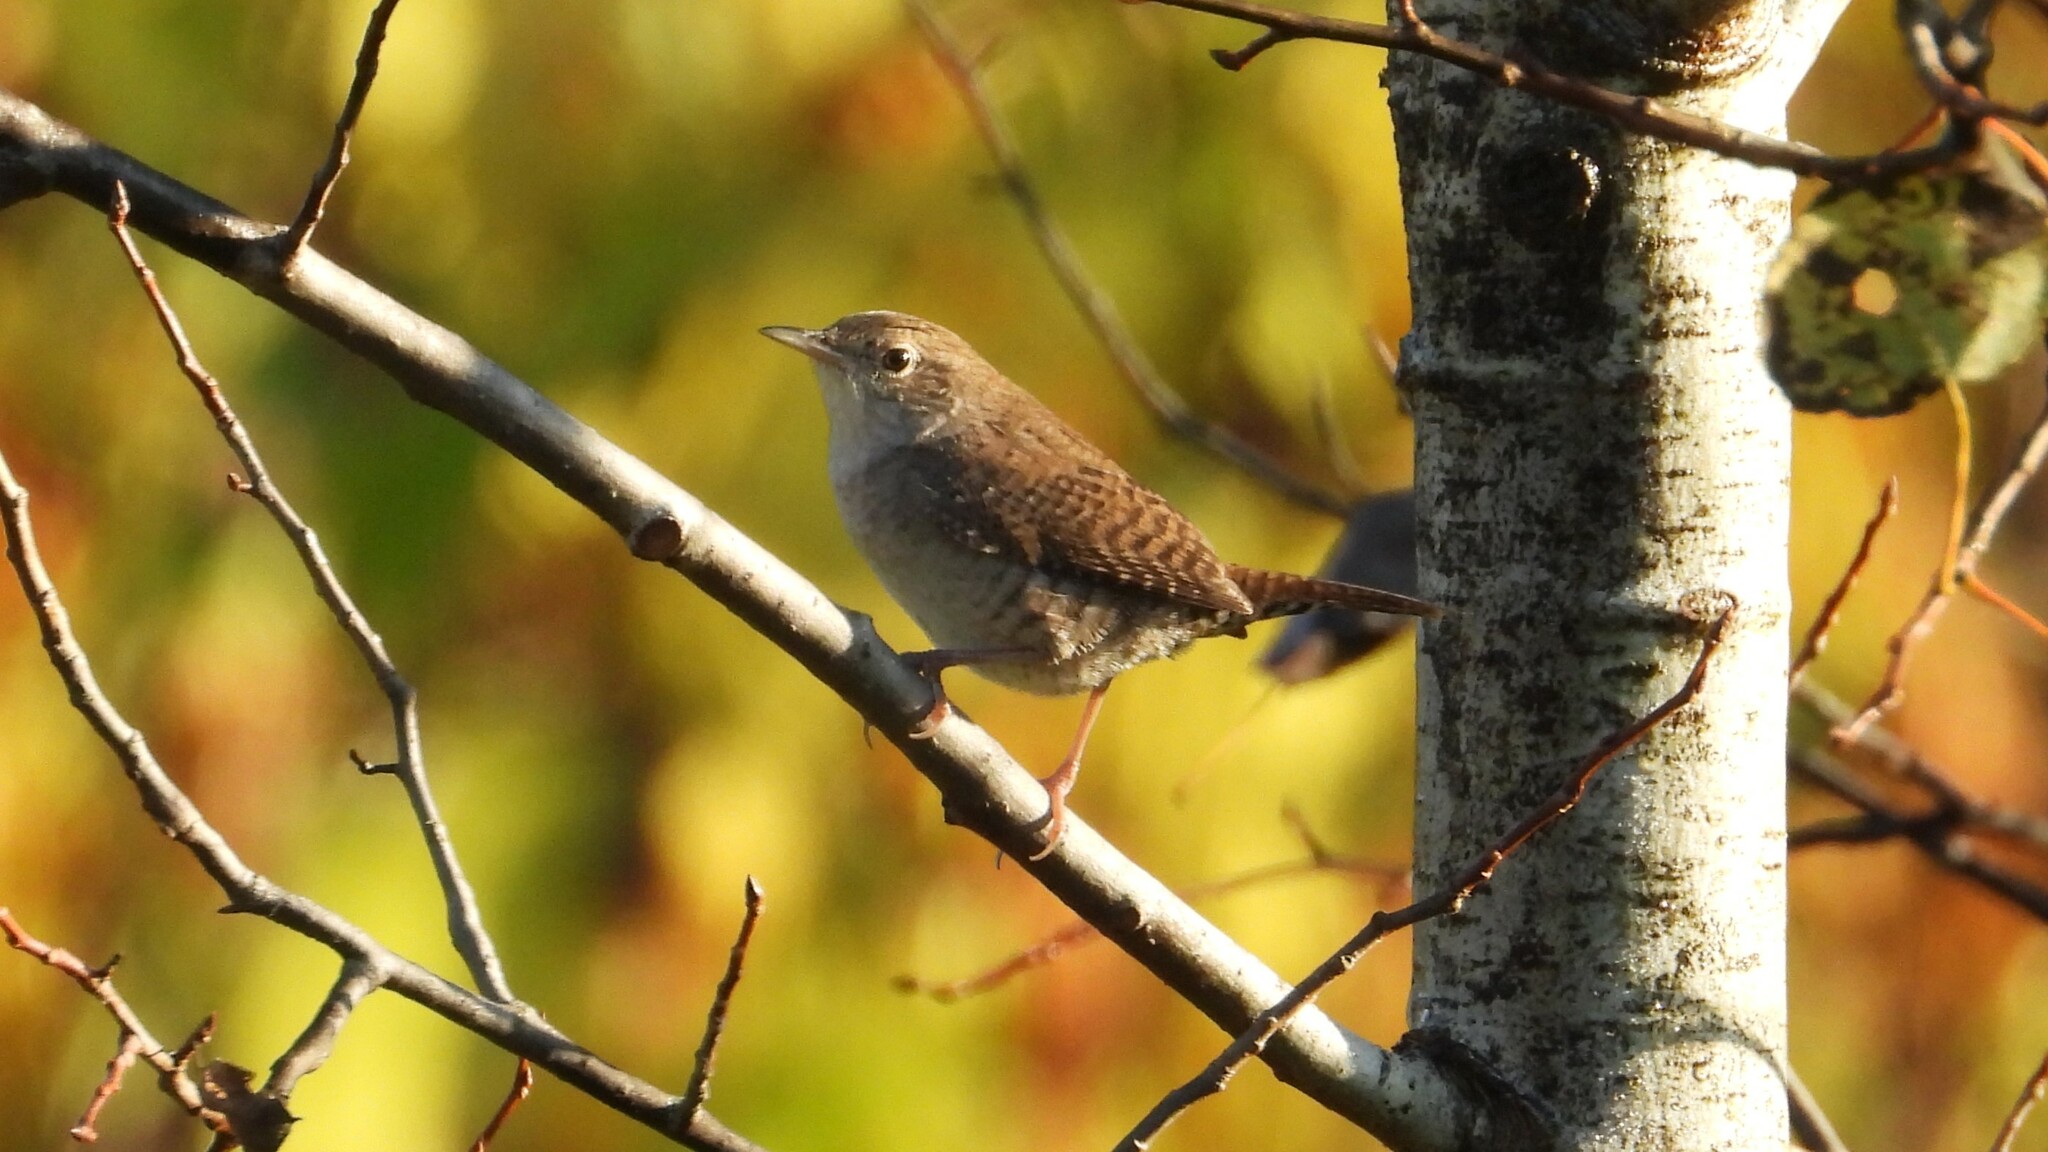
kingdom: Animalia
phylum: Chordata
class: Aves
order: Passeriformes
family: Troglodytidae
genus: Troglodytes
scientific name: Troglodytes aedon
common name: House wren
